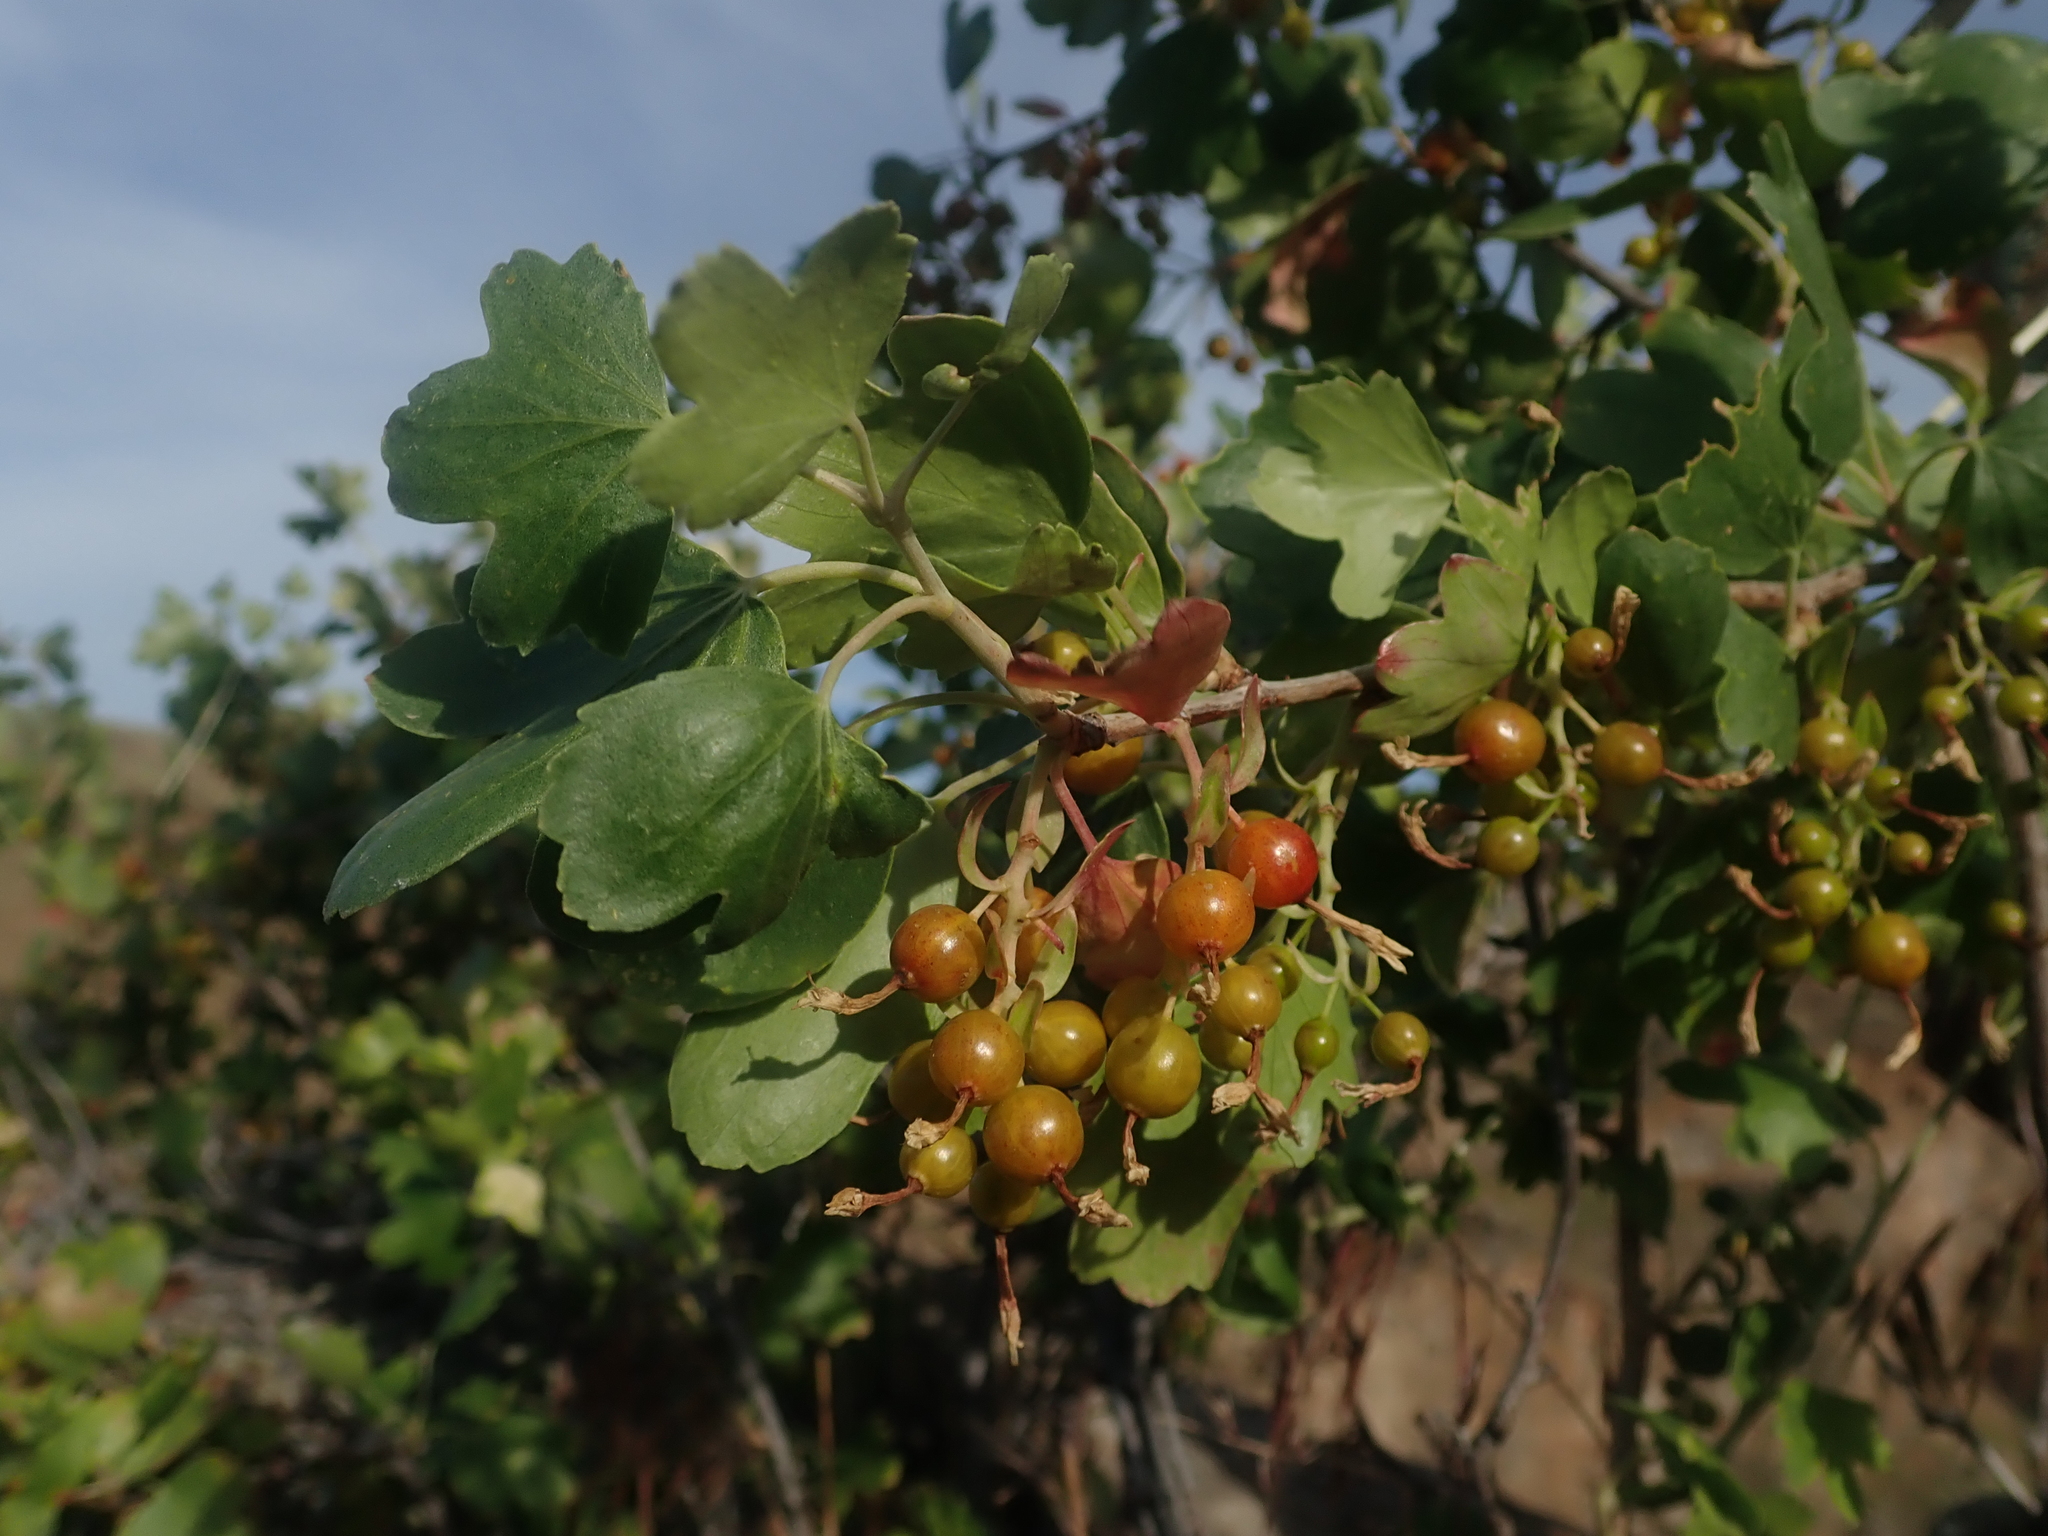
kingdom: Plantae
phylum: Tracheophyta
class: Magnoliopsida
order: Saxifragales
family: Grossulariaceae
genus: Ribes
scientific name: Ribes aureum
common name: Golden currant
